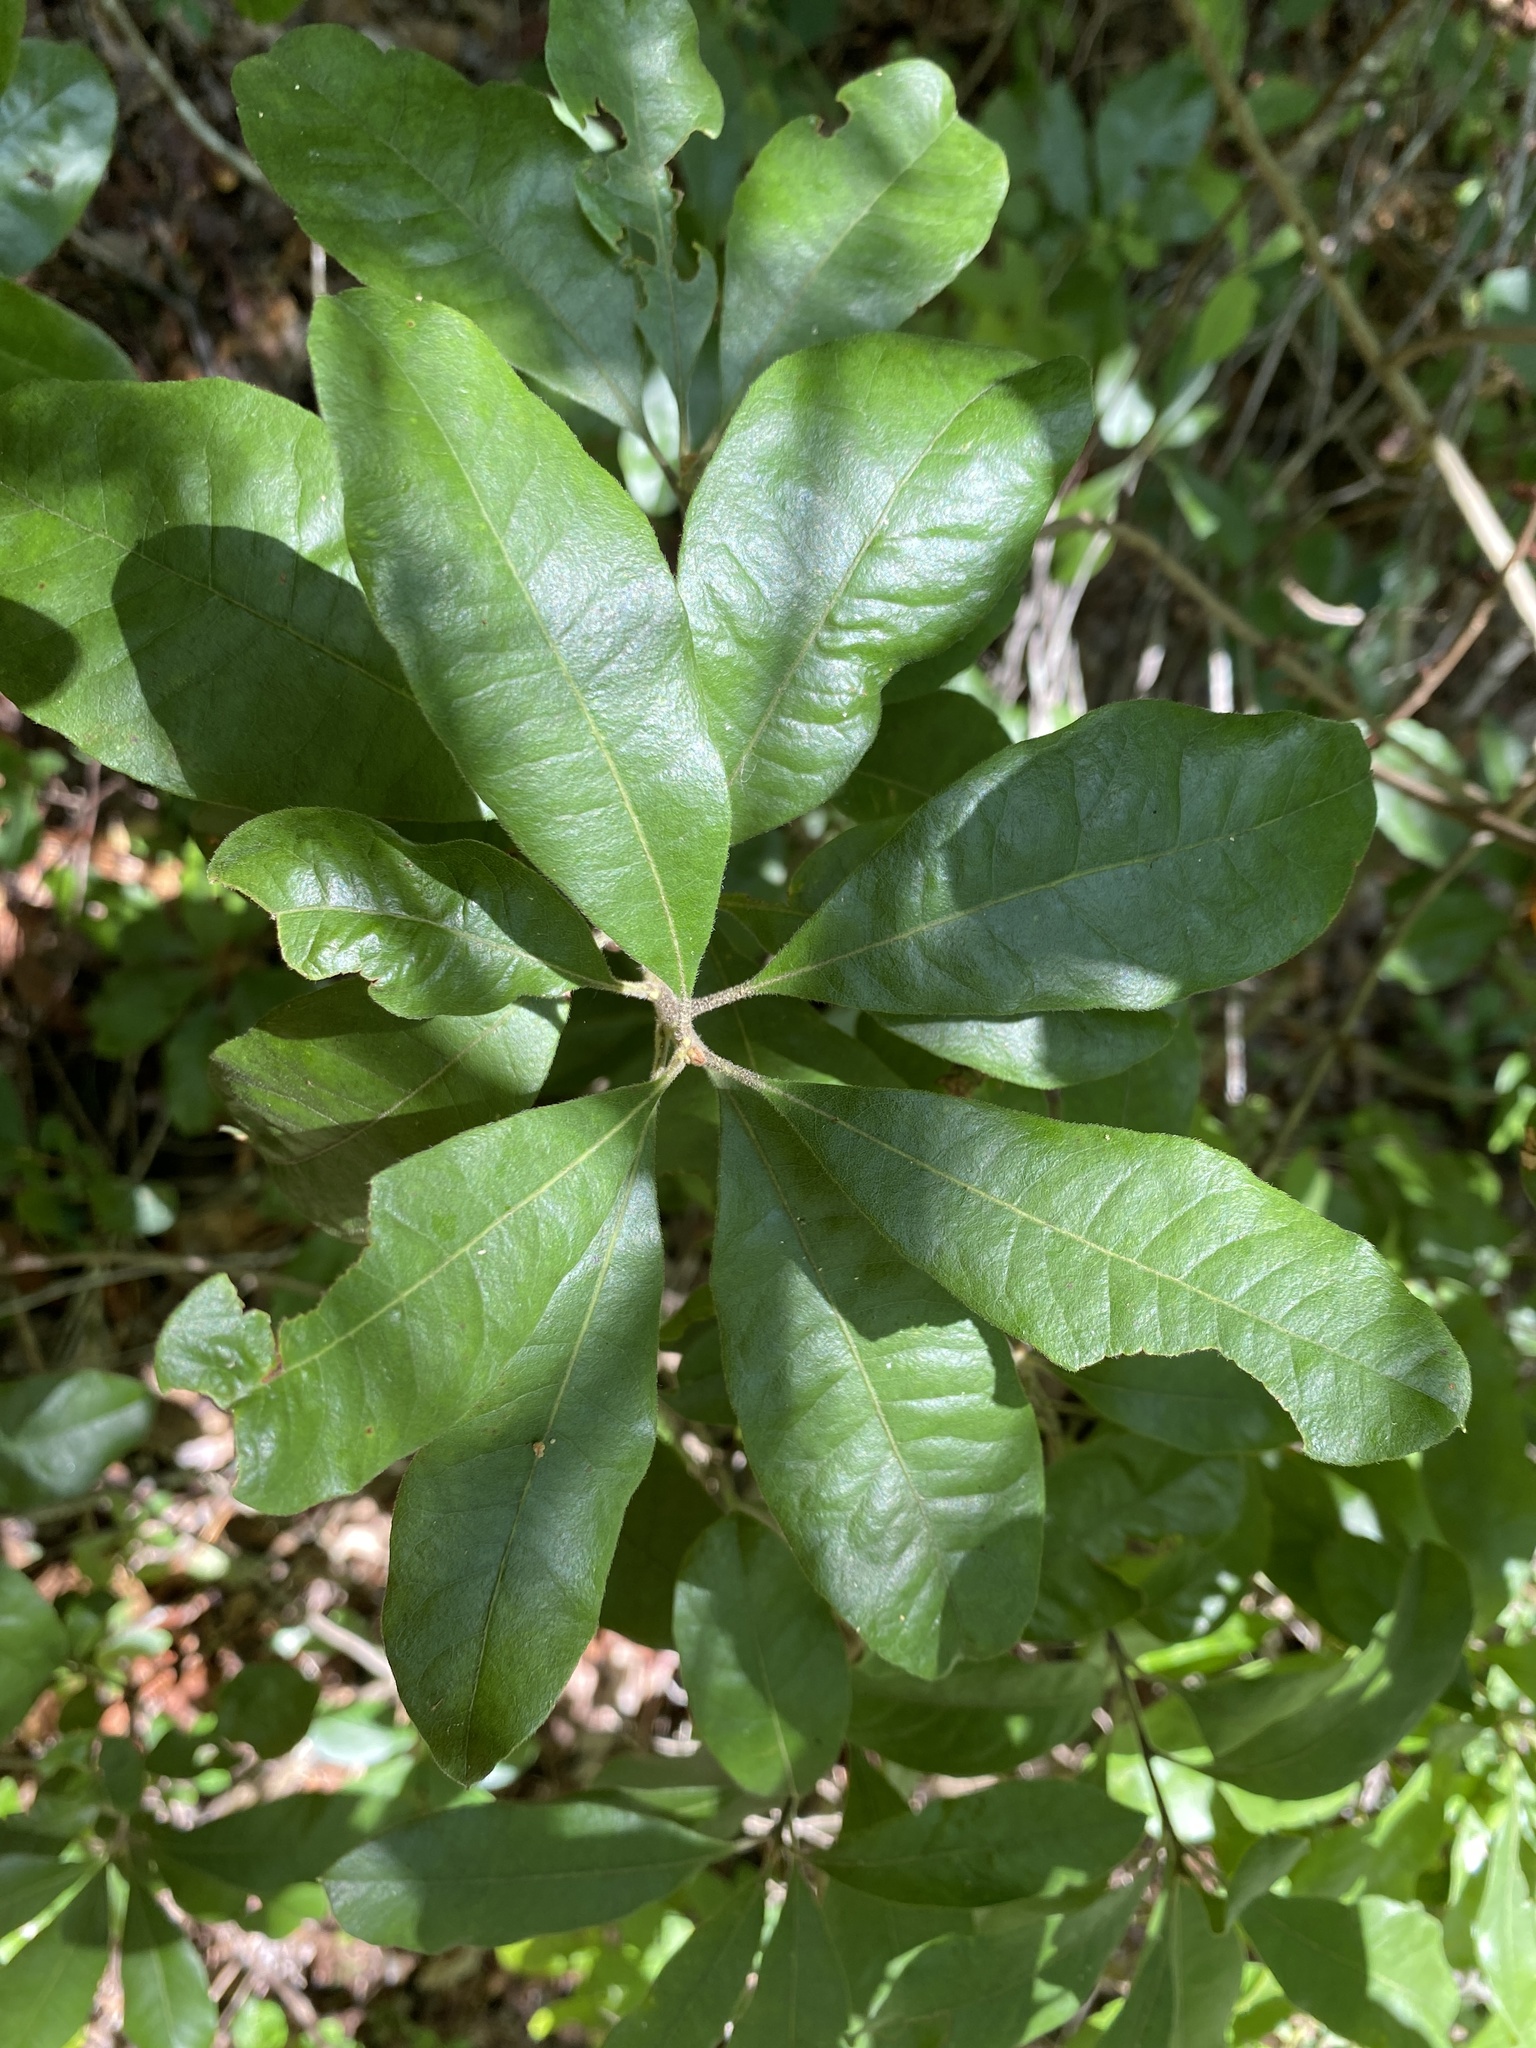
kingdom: Plantae
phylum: Tracheophyta
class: Magnoliopsida
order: Fagales
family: Myricaceae
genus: Morella
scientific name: Morella caroliniensis
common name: Evergreen bayberry
